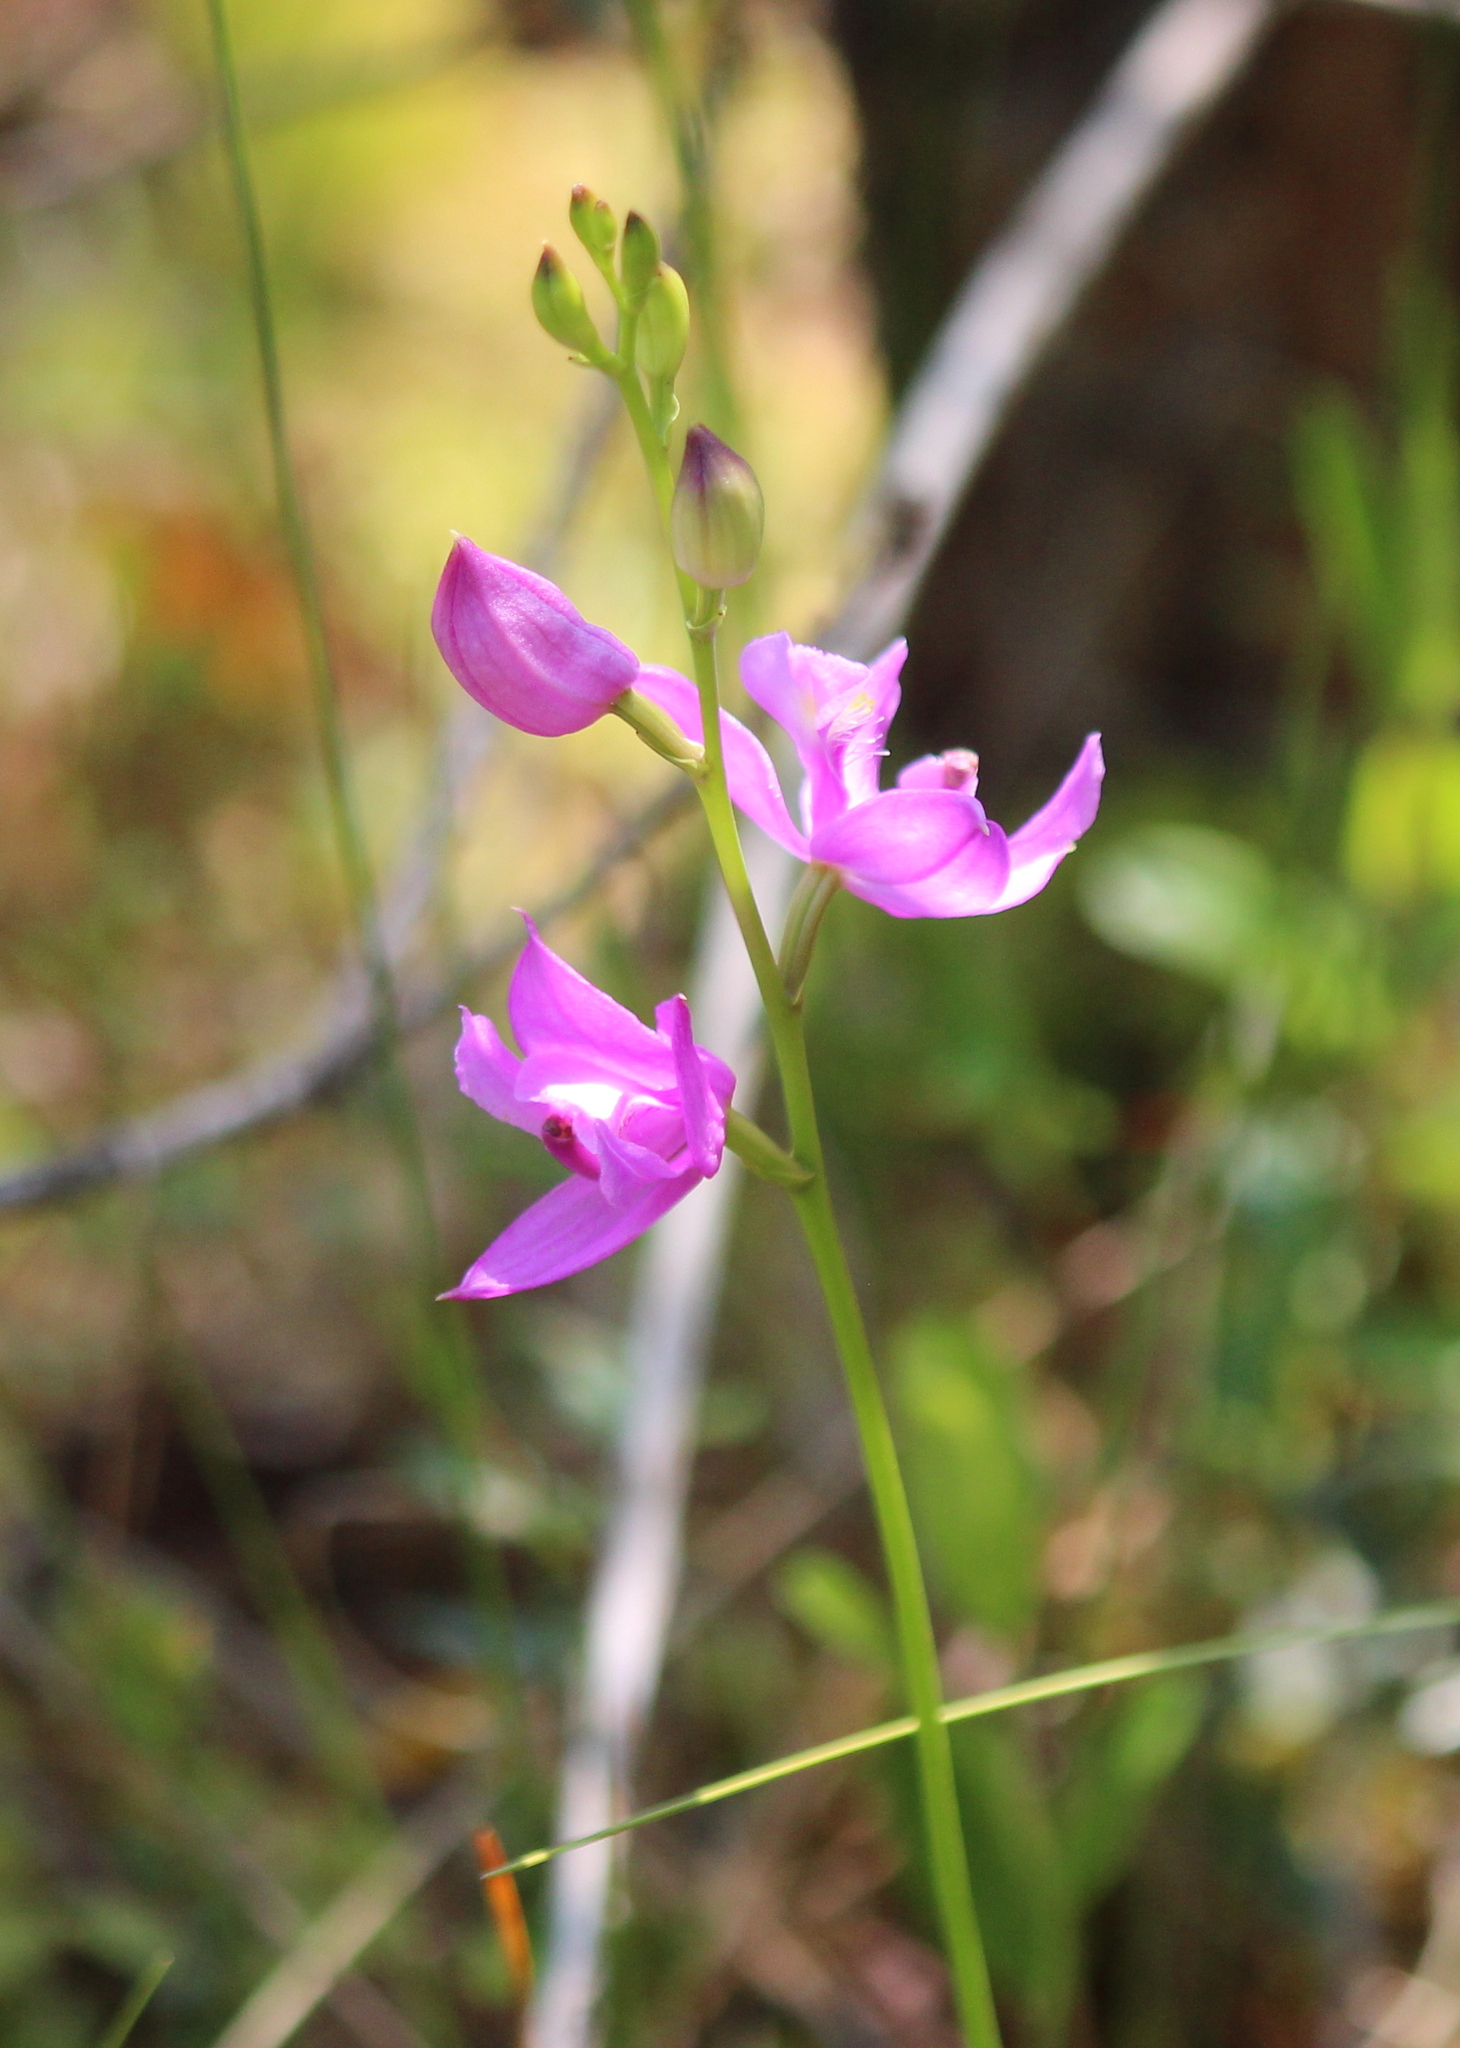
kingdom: Plantae
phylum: Tracheophyta
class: Liliopsida
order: Asparagales
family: Orchidaceae
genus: Calopogon
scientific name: Calopogon tuberosus
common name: Grass-pink
